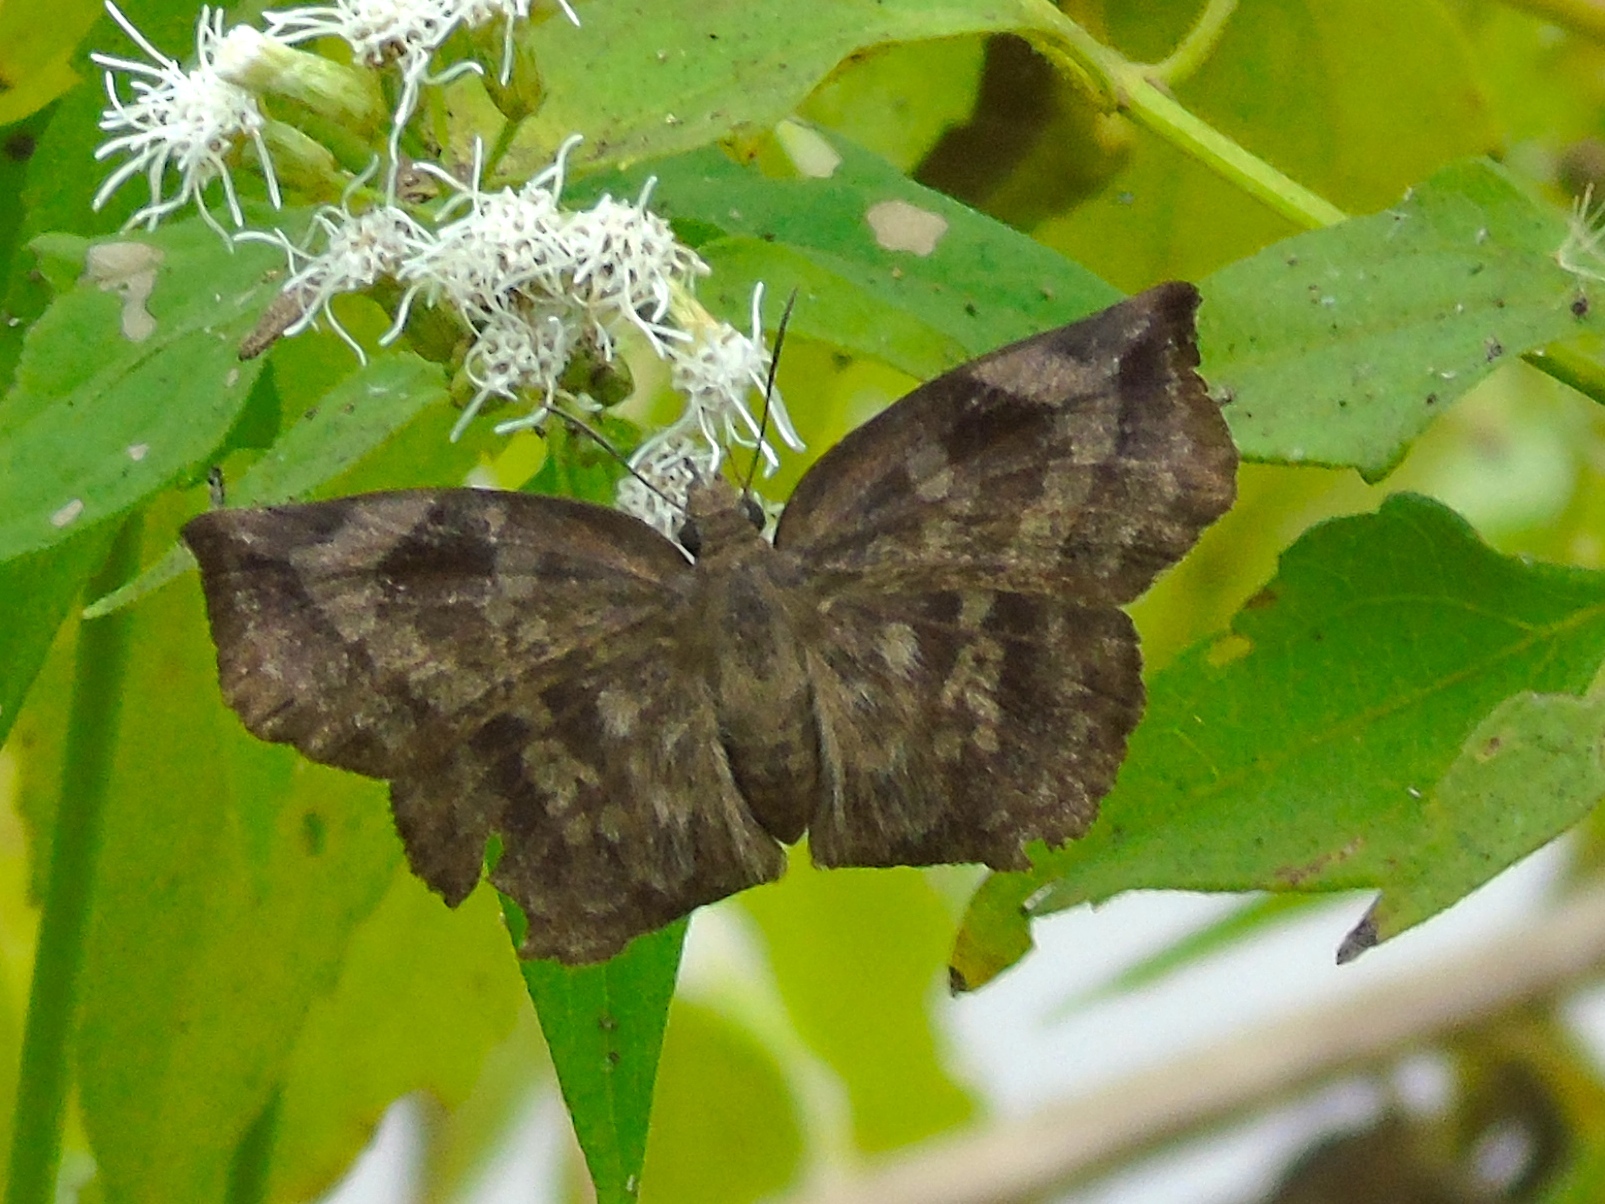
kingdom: Animalia
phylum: Arthropoda
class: Insecta
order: Lepidoptera
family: Hesperiidae
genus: Achlyodes
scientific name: Achlyodes thraso
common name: Sickle-winged skipper
